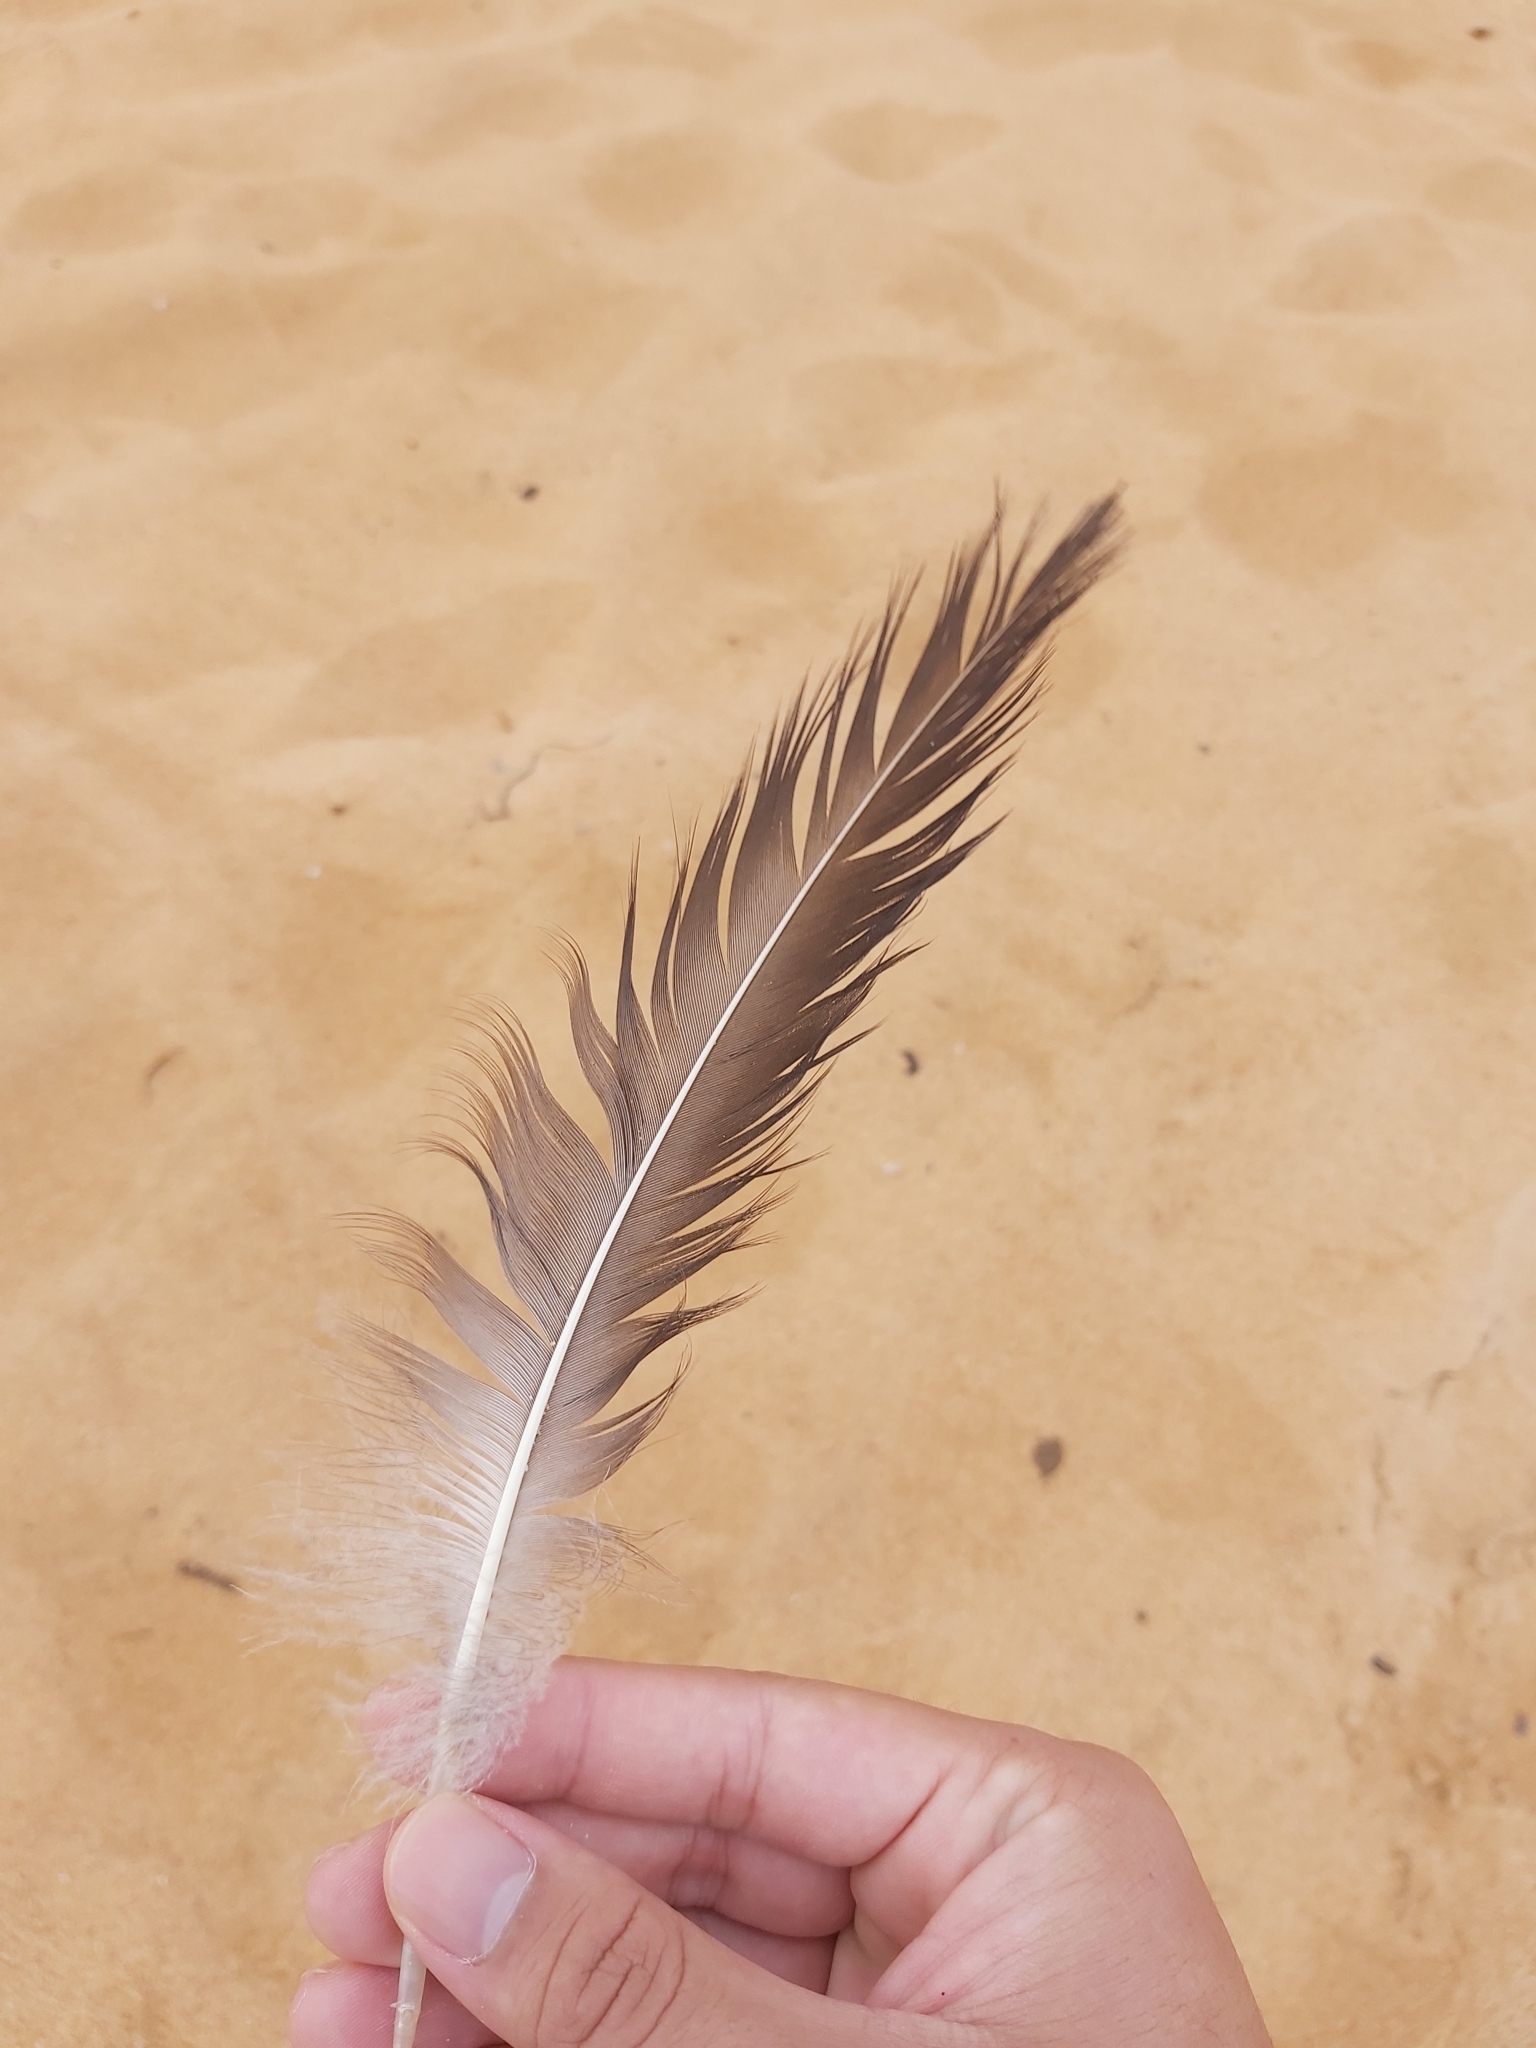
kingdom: Animalia
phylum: Chordata
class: Aves
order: Pelecaniformes
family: Pelecanidae
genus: Pelecanus
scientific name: Pelecanus conspicillatus
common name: Australian pelican
